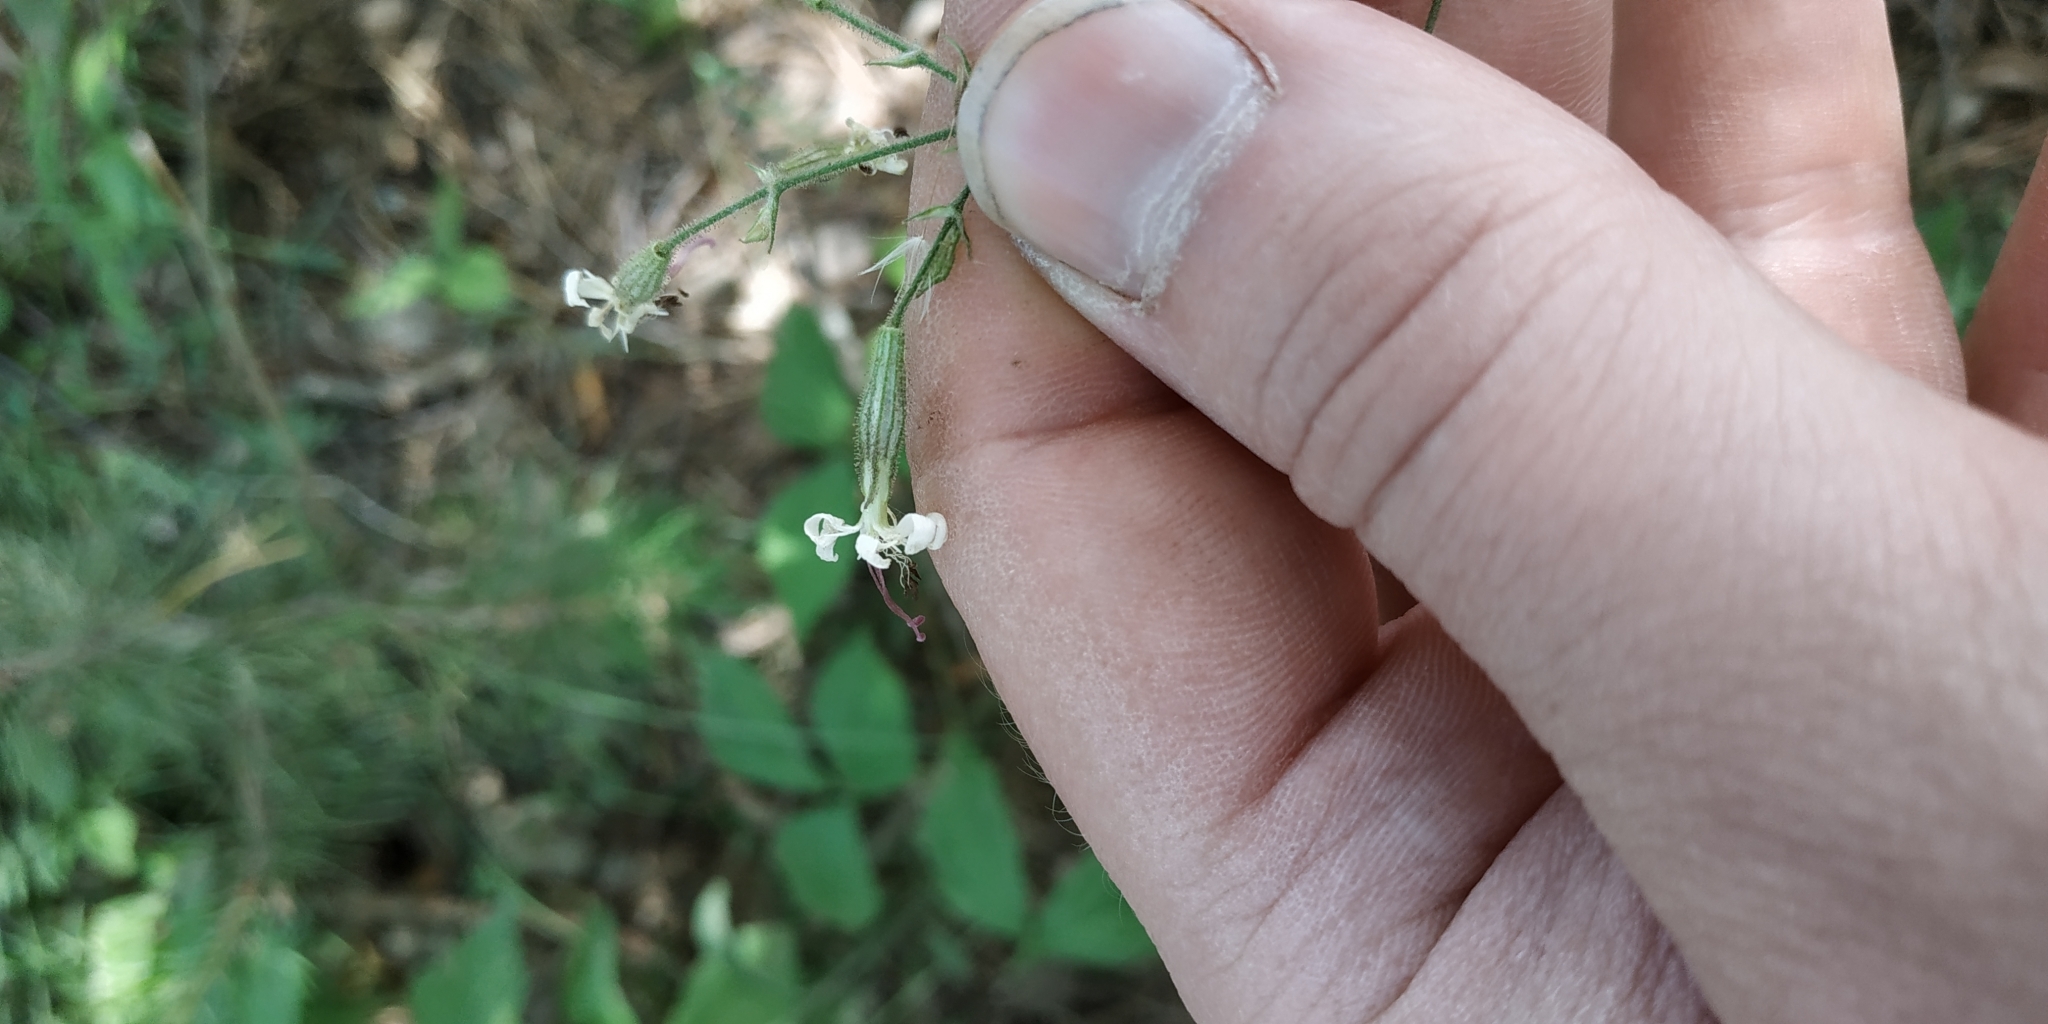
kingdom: Plantae
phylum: Tracheophyta
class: Magnoliopsida
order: Caryophyllales
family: Caryophyllaceae
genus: Silene
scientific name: Silene nutans
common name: Nottingham catchfly
